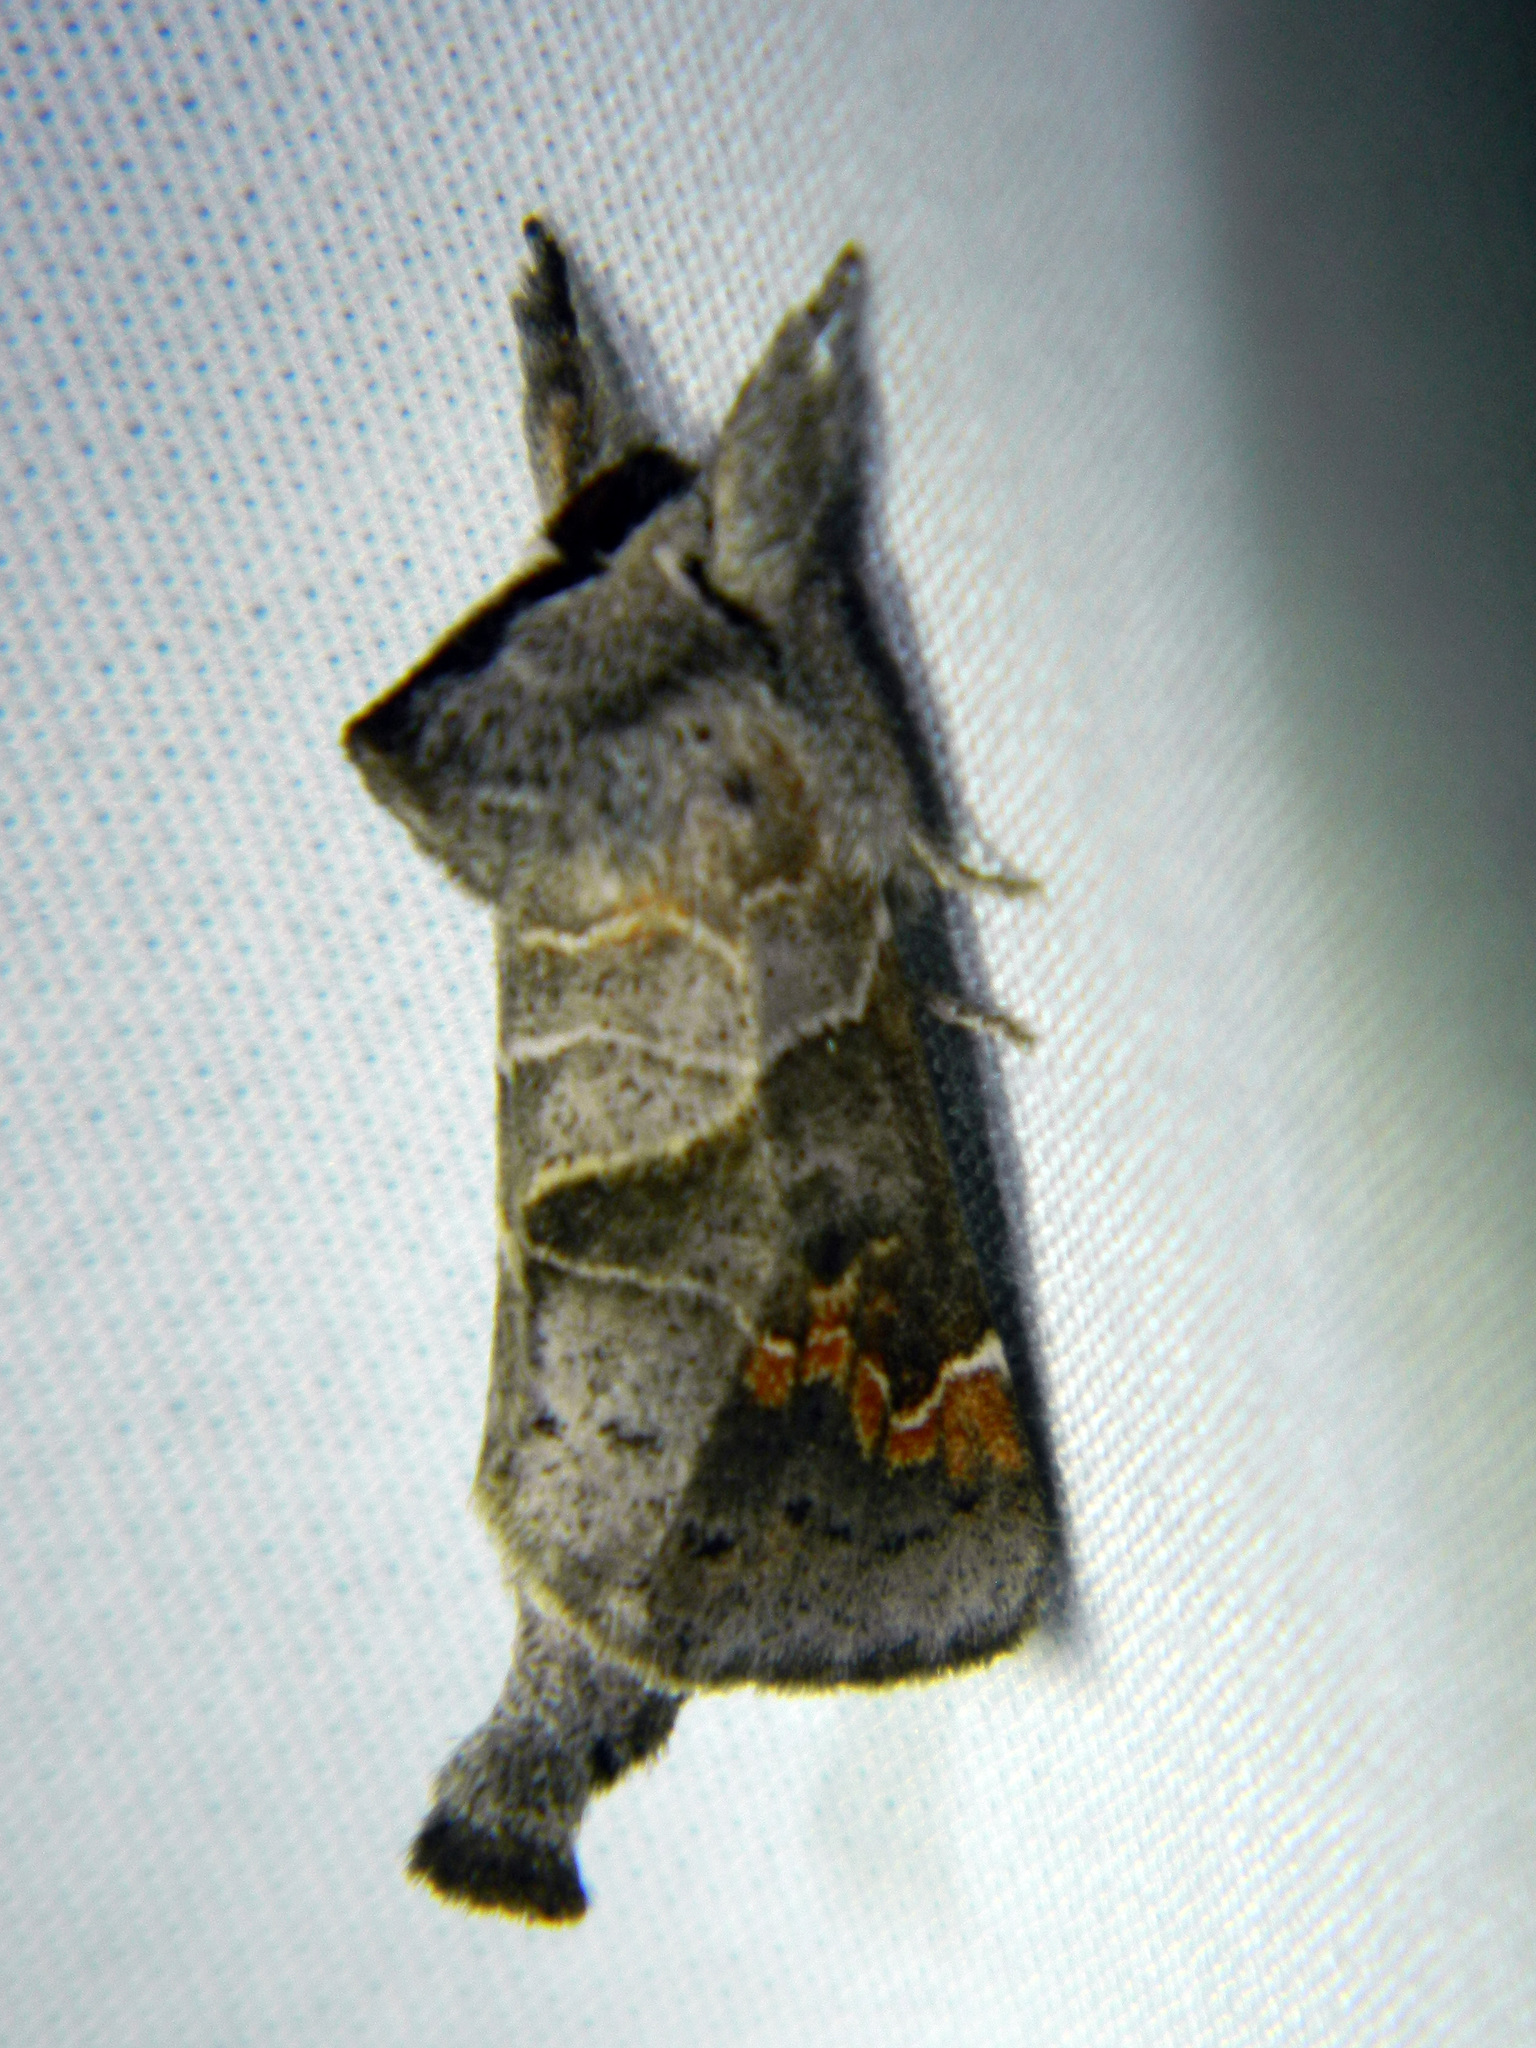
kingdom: Animalia
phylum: Arthropoda
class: Insecta
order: Lepidoptera
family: Notodontidae
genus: Clostera
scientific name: Clostera apicalis
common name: Apical prominent
